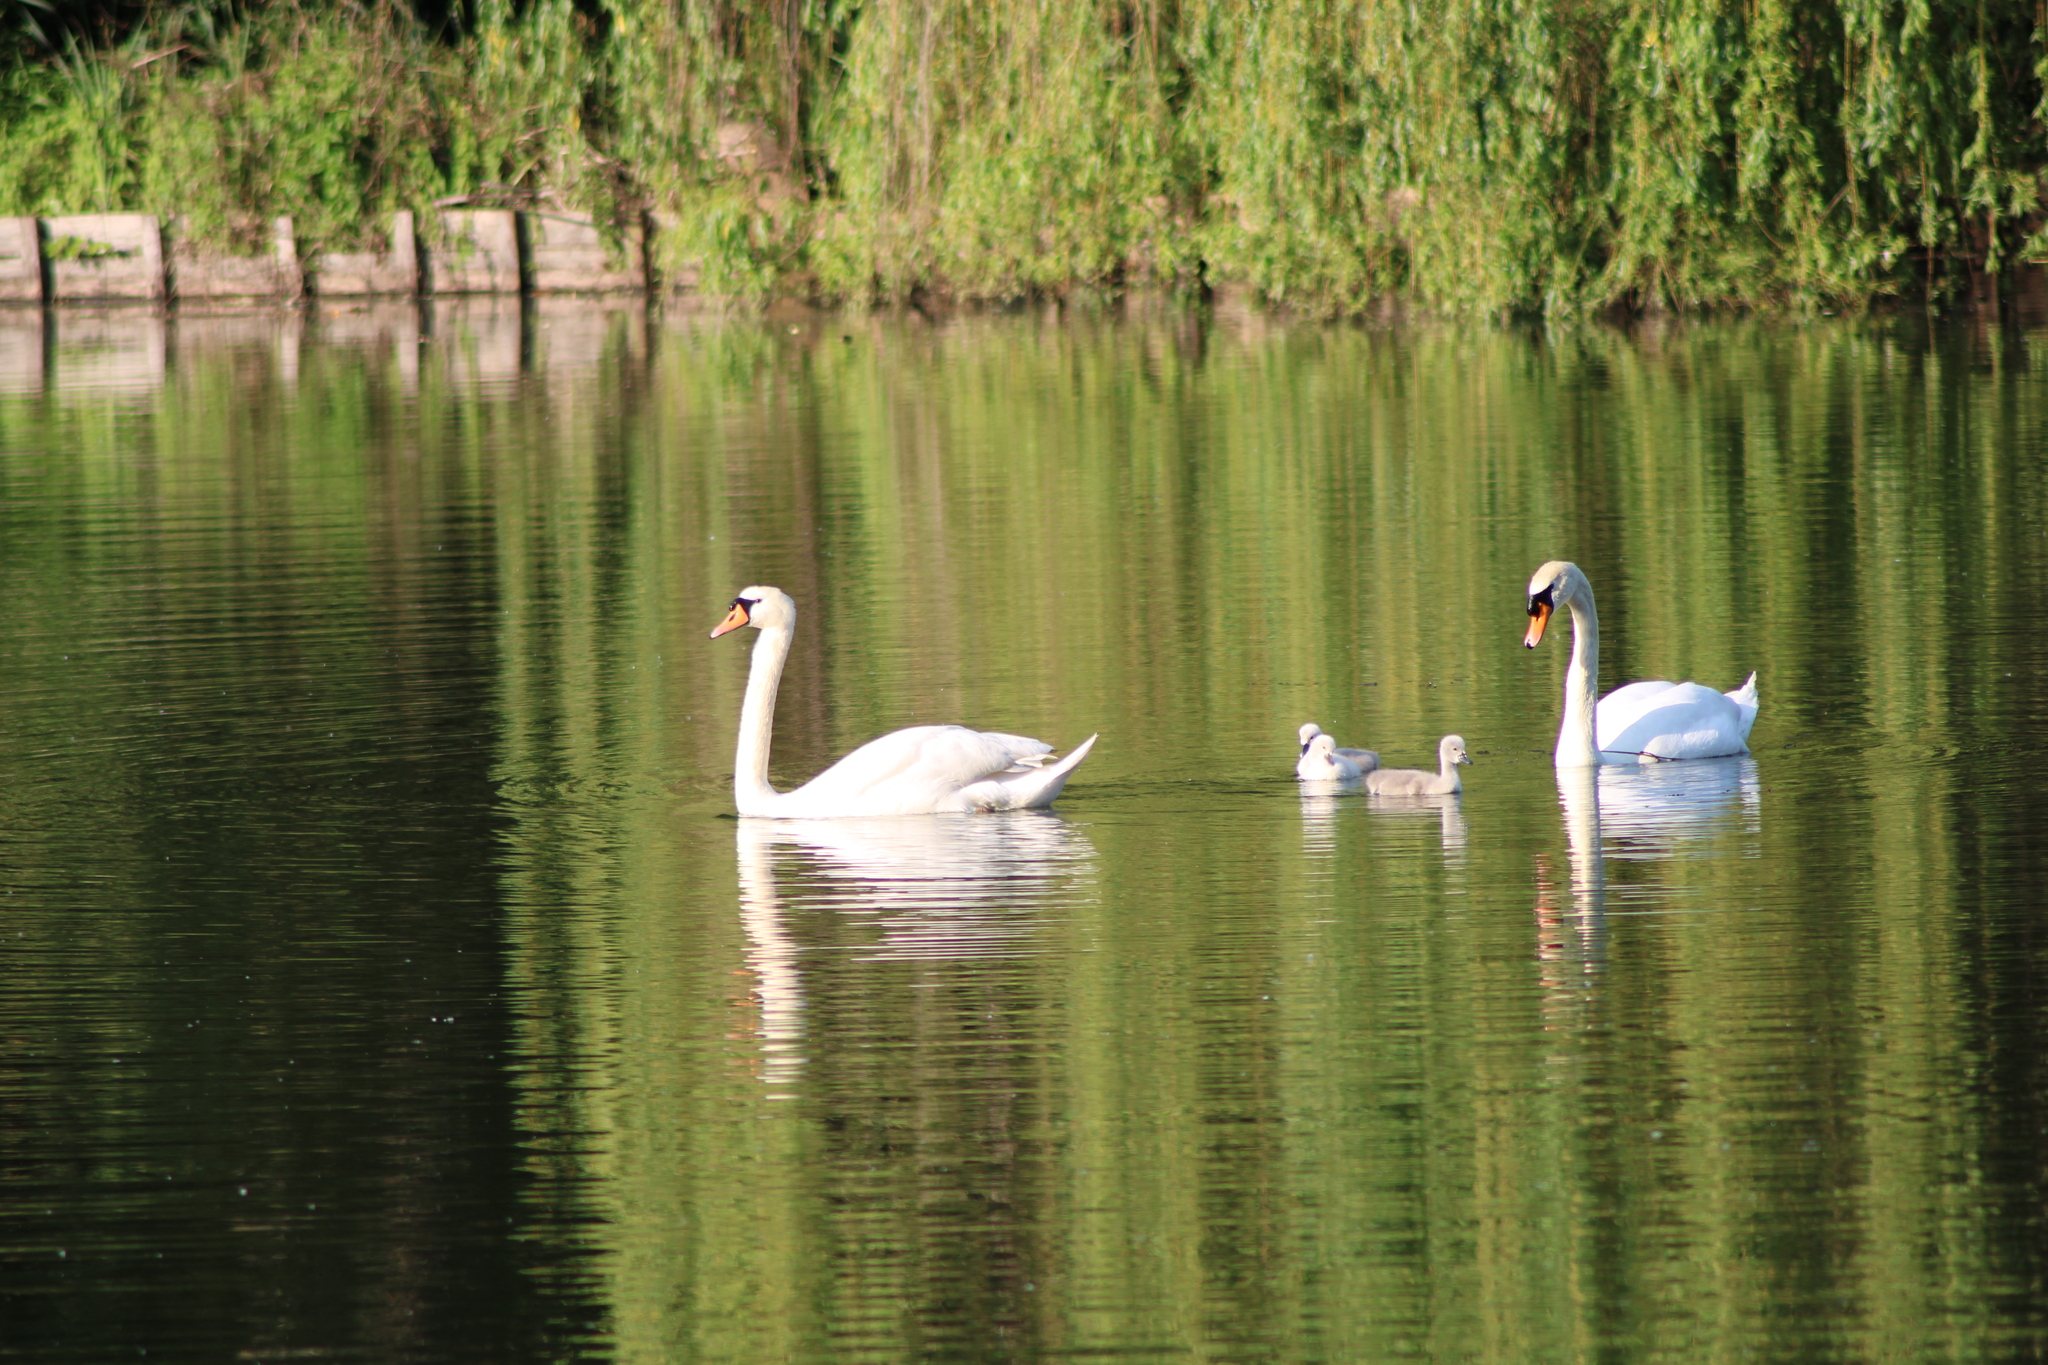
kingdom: Animalia
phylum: Chordata
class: Aves
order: Anseriformes
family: Anatidae
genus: Cygnus
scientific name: Cygnus olor
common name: Mute swan
